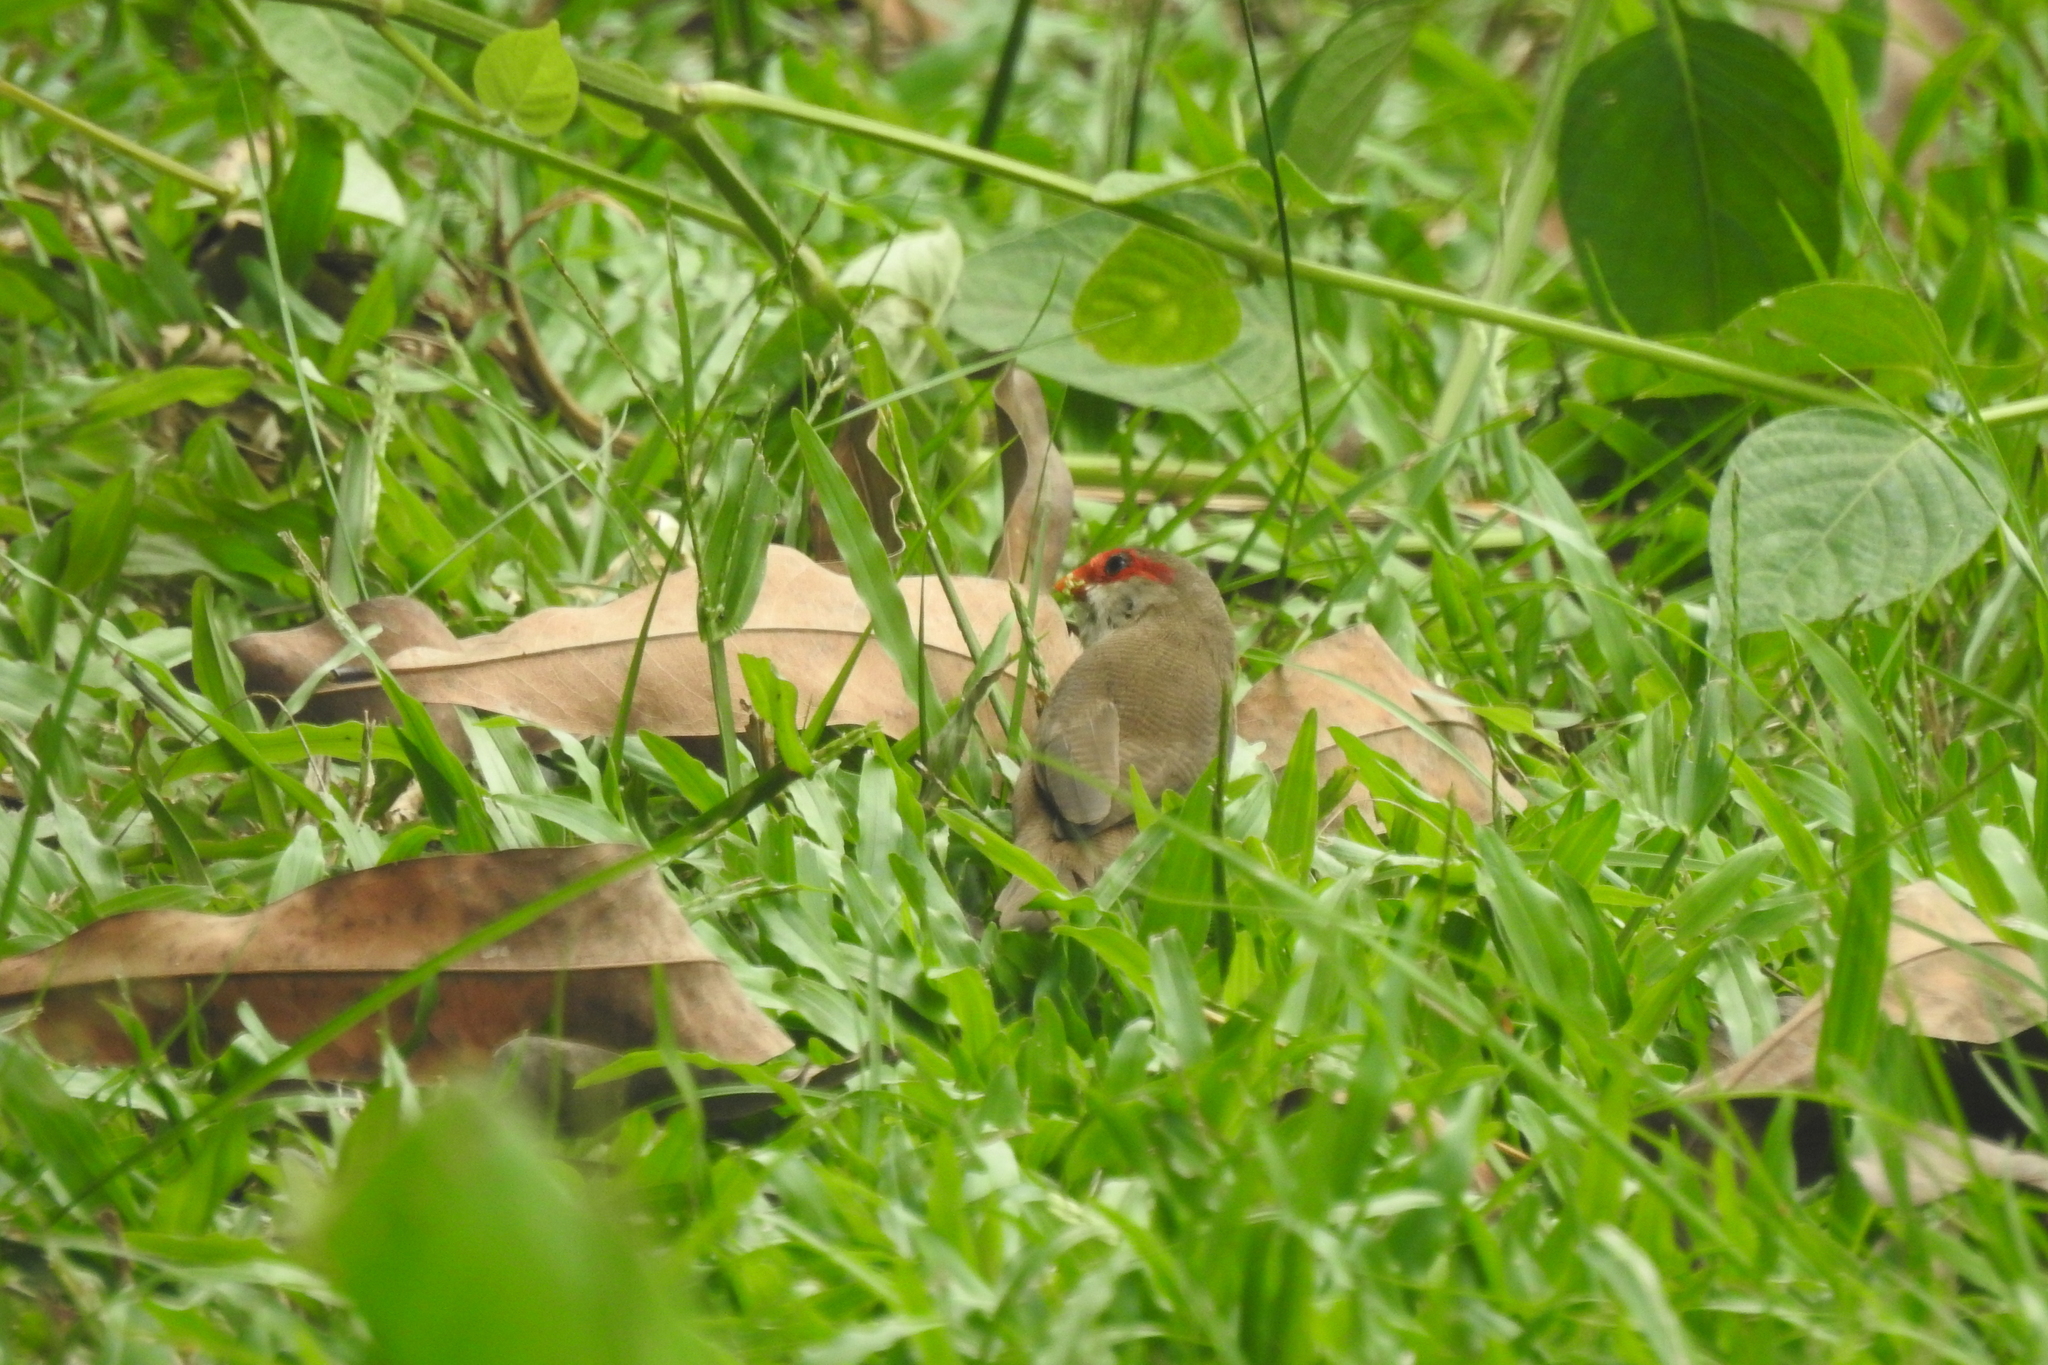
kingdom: Animalia
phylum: Chordata
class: Aves
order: Passeriformes
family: Estrildidae
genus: Estrilda
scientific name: Estrilda astrild
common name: Common waxbill
